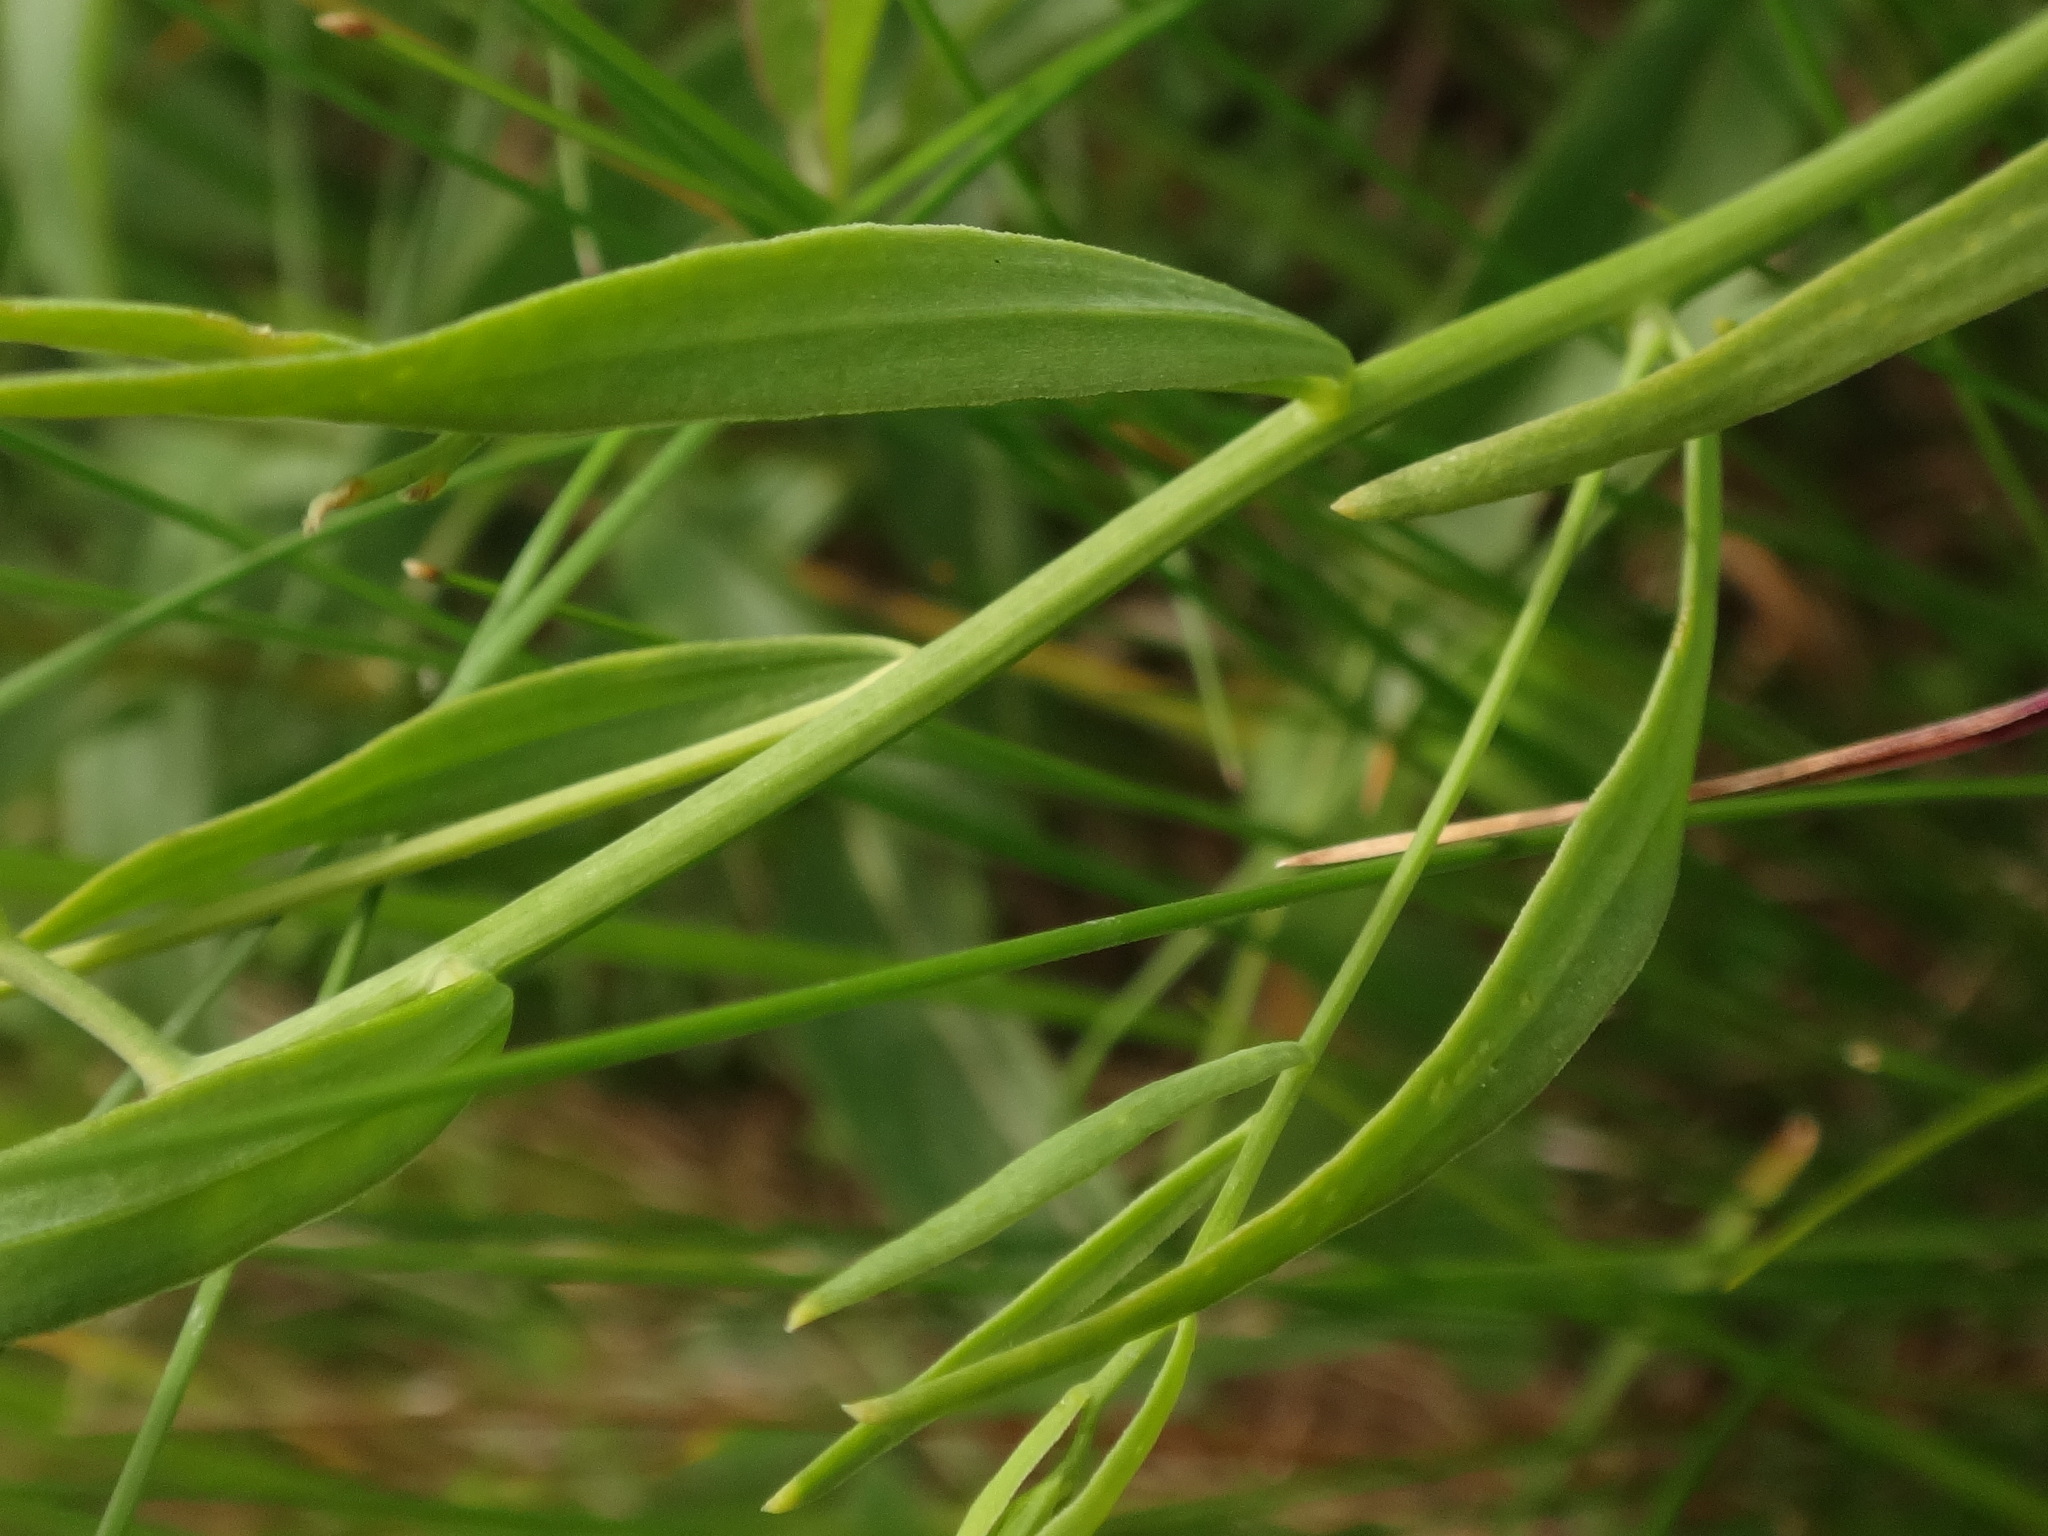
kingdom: Plantae
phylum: Tracheophyta
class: Magnoliopsida
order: Santalales
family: Thesiaceae
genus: Thesium
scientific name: Thesium linophyllon
